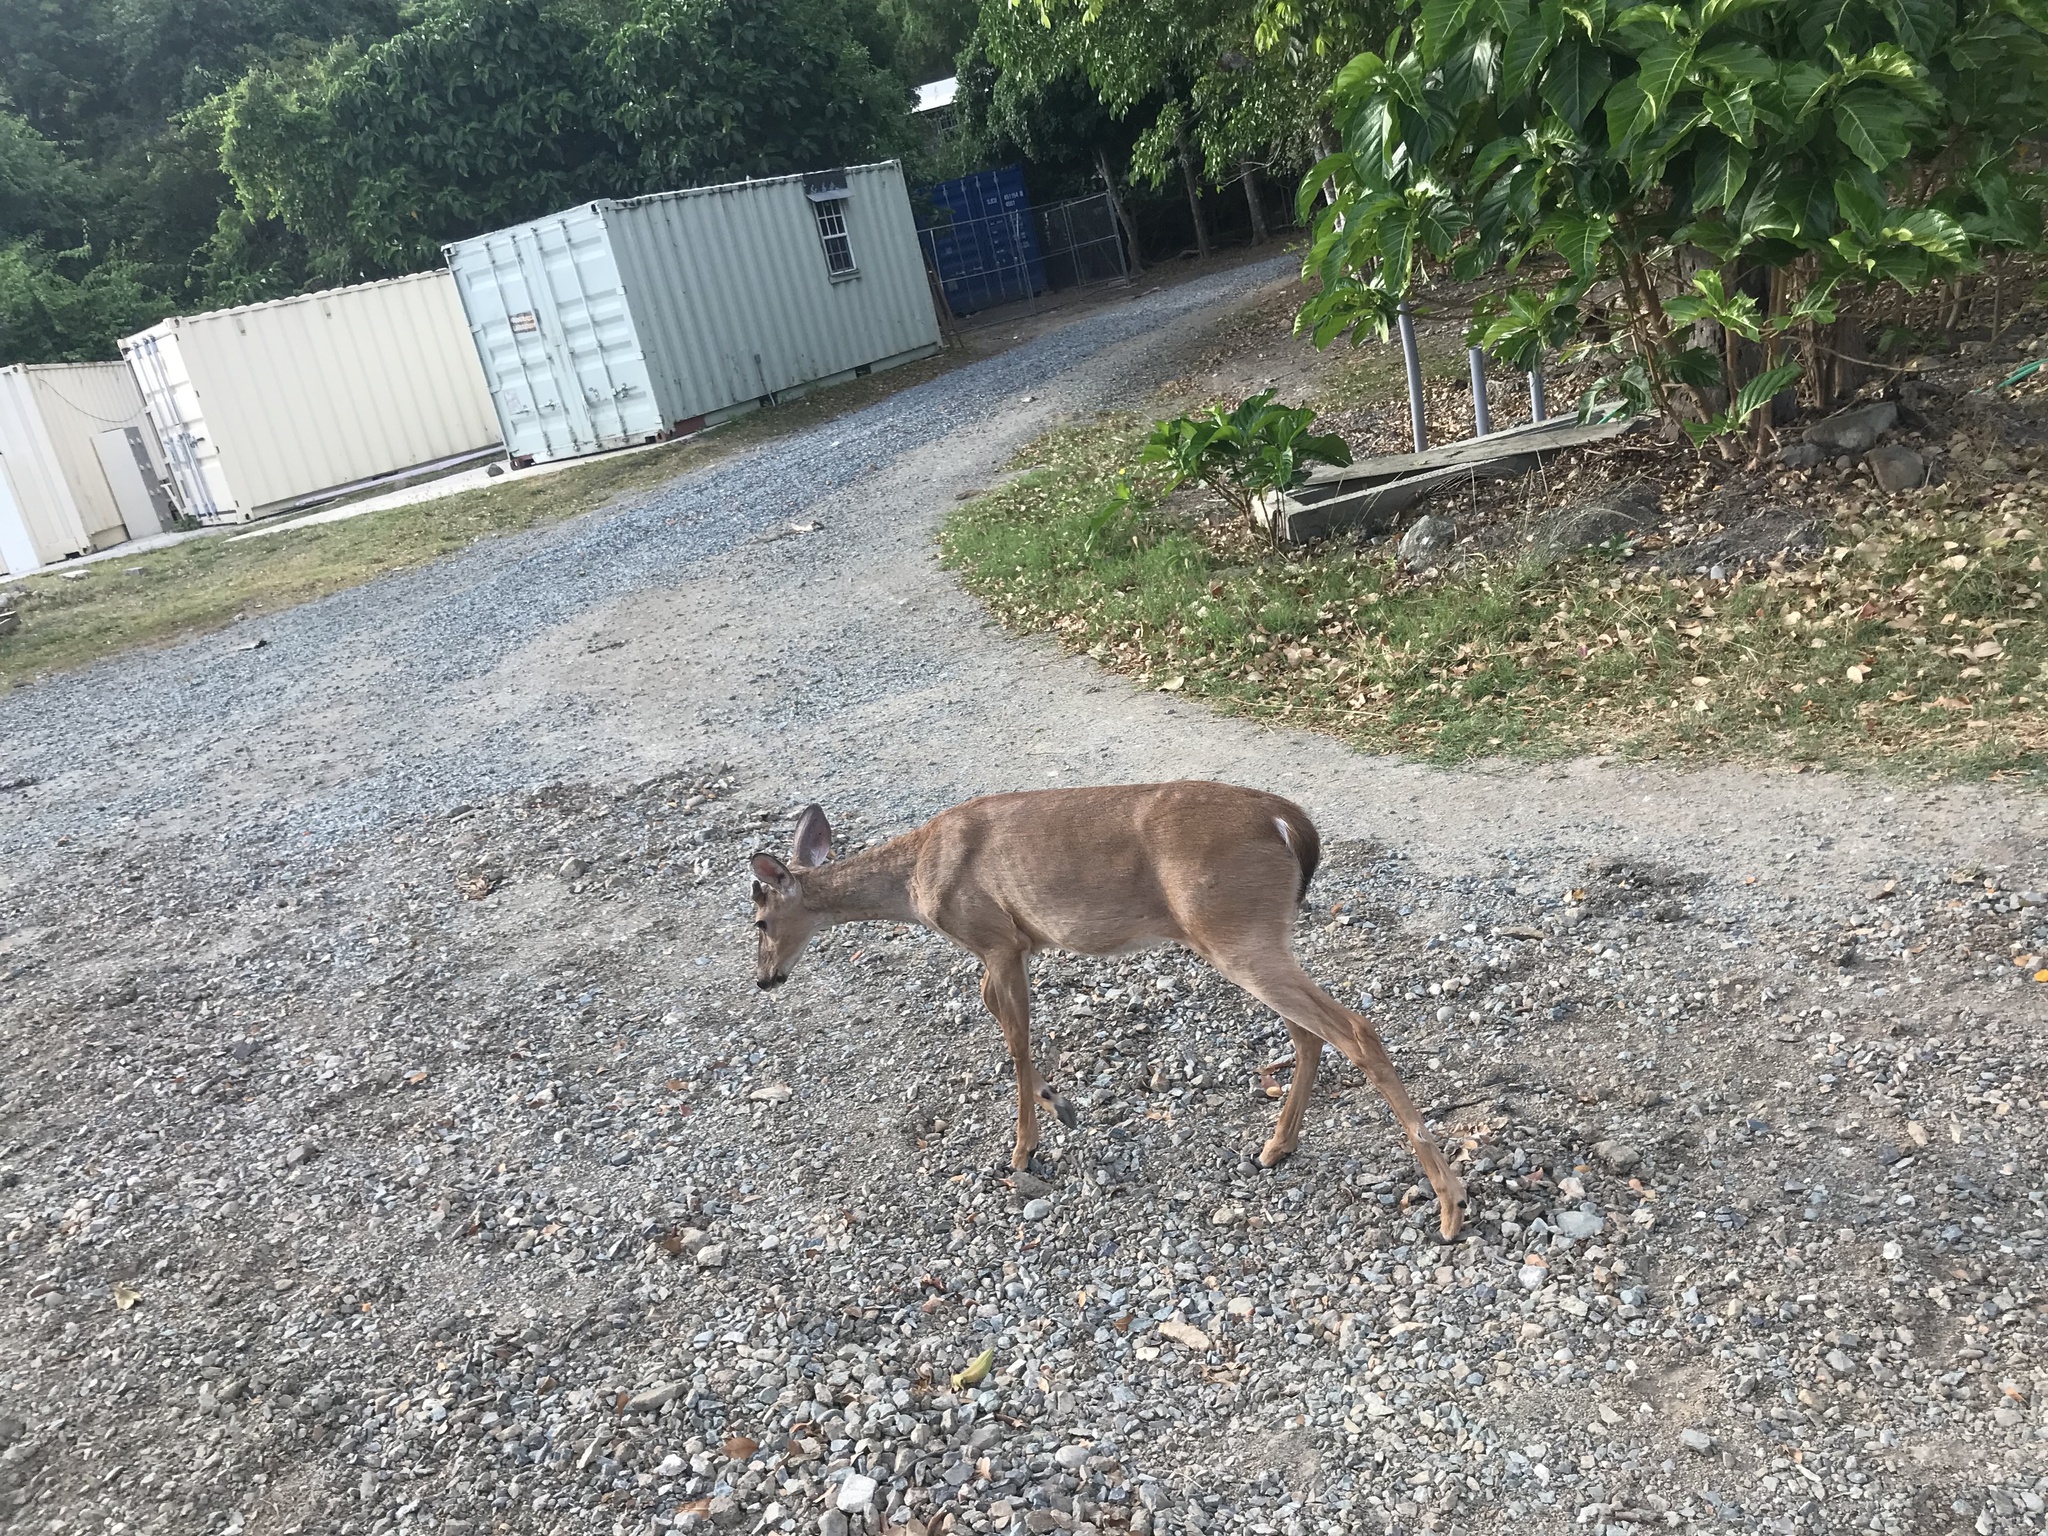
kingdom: Animalia
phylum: Chordata
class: Mammalia
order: Artiodactyla
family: Cervidae
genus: Odocoileus
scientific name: Odocoileus virginianus
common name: White-tailed deer
